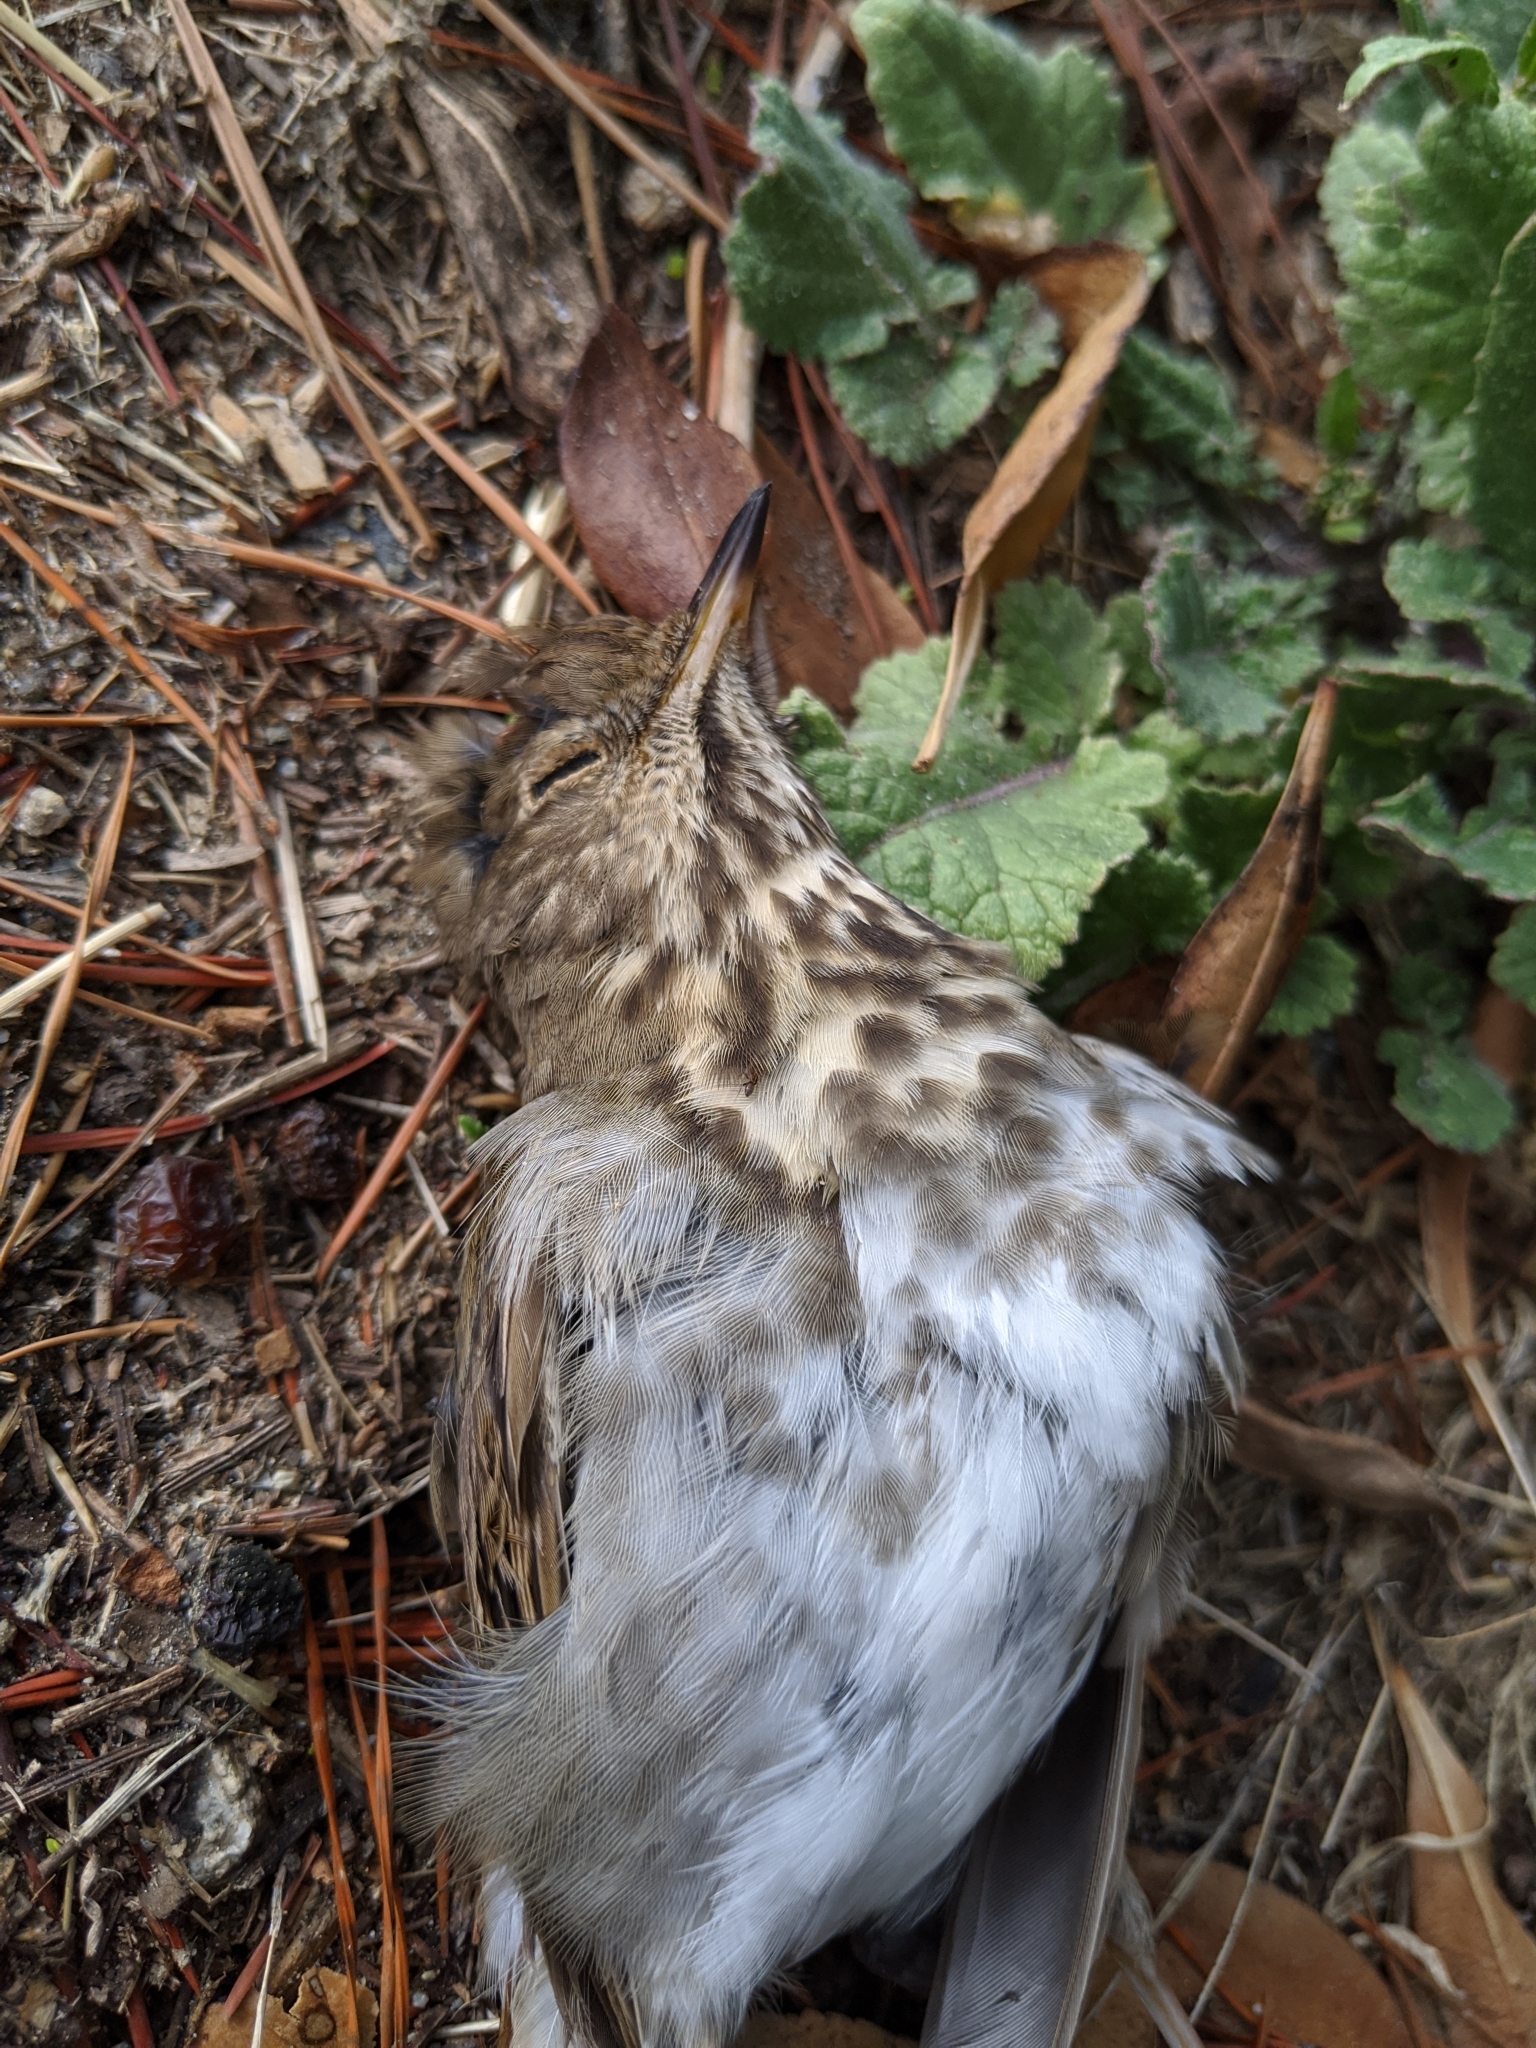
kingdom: Animalia
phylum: Chordata
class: Aves
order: Passeriformes
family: Turdidae
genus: Catharus
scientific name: Catharus guttatus
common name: Hermit thrush
